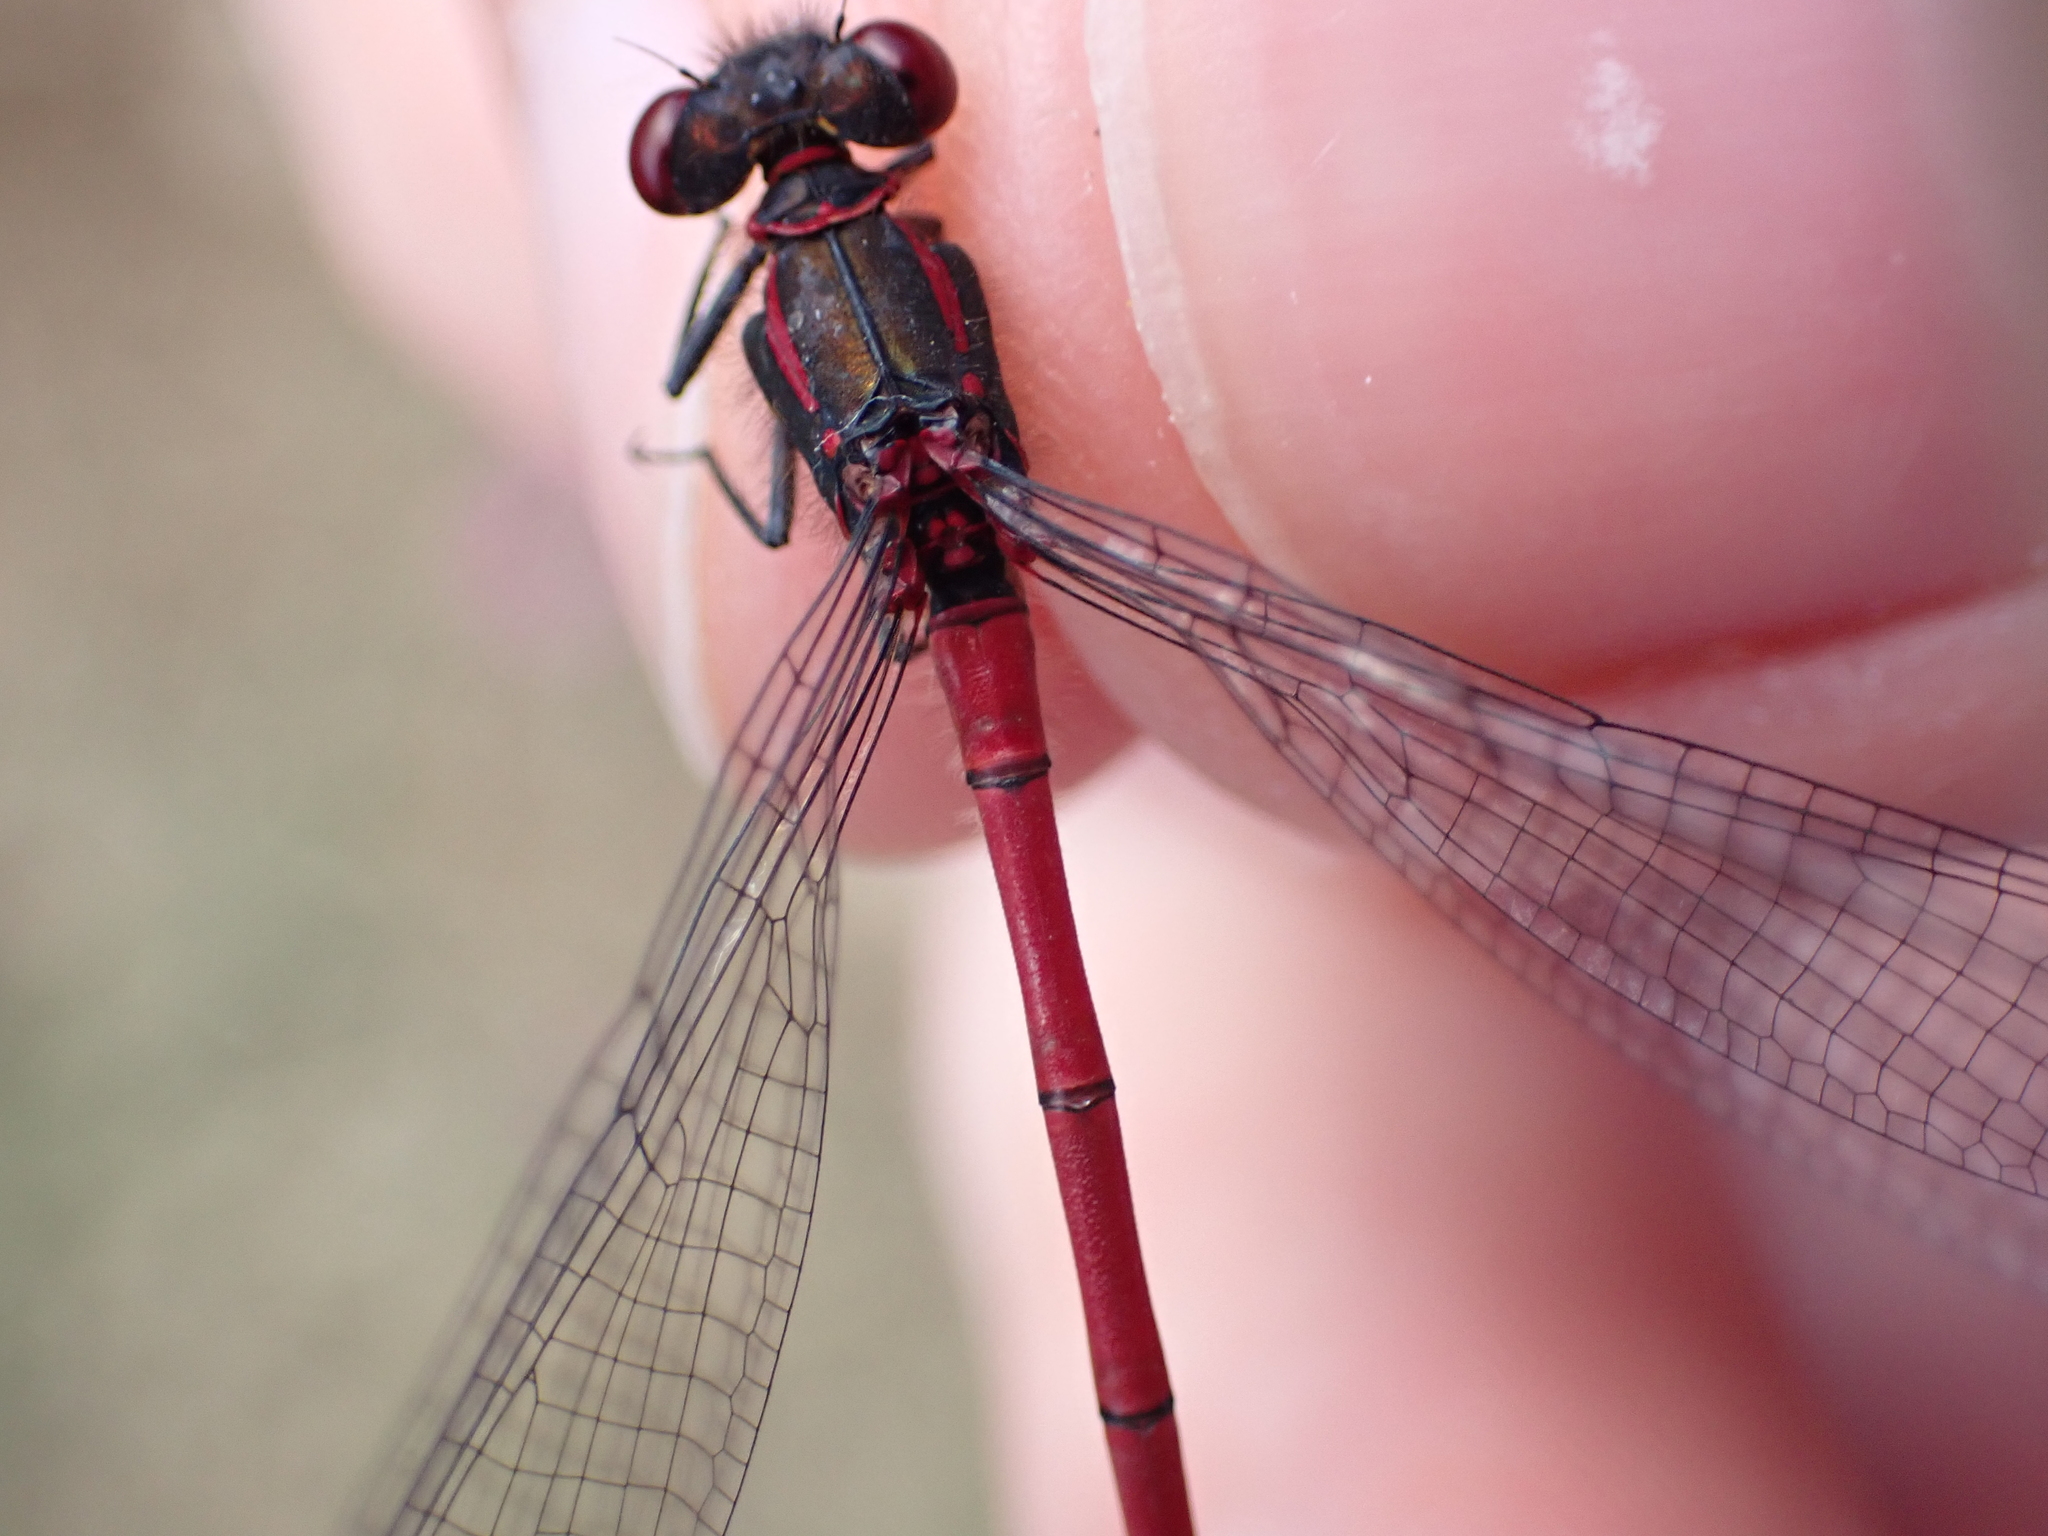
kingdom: Animalia
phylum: Arthropoda
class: Insecta
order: Odonata
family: Coenagrionidae
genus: Pyrrhosoma
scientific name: Pyrrhosoma nymphula
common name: Large red damsel
